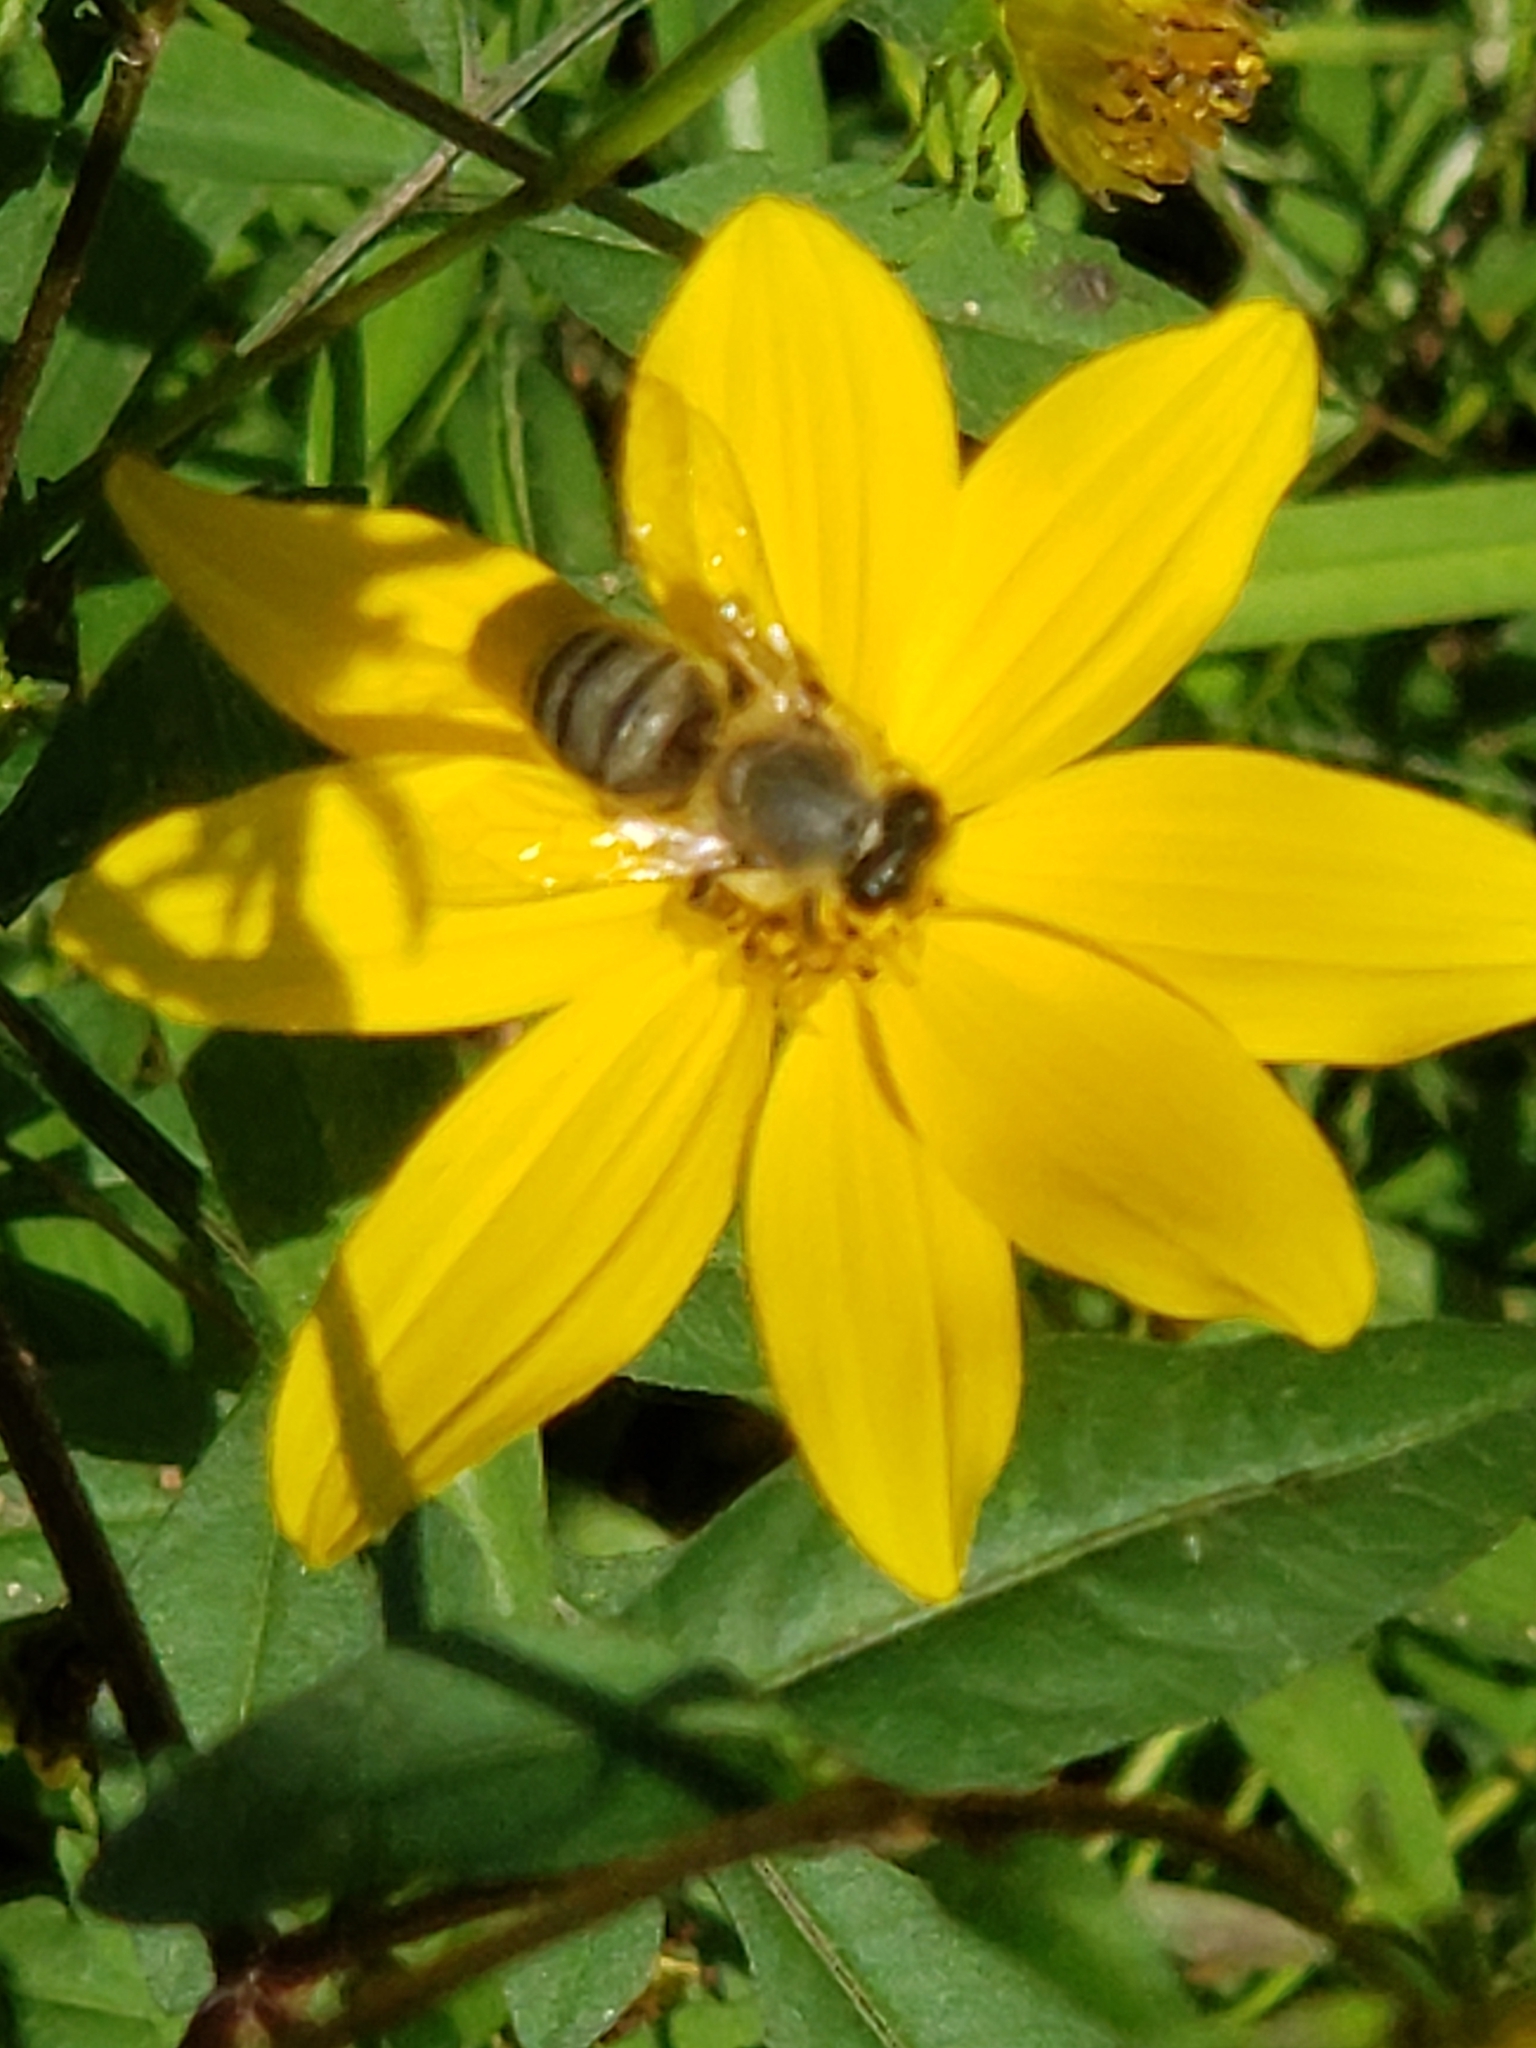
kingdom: Animalia
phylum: Arthropoda
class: Insecta
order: Hymenoptera
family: Apidae
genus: Apis
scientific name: Apis mellifera
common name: Honey bee
